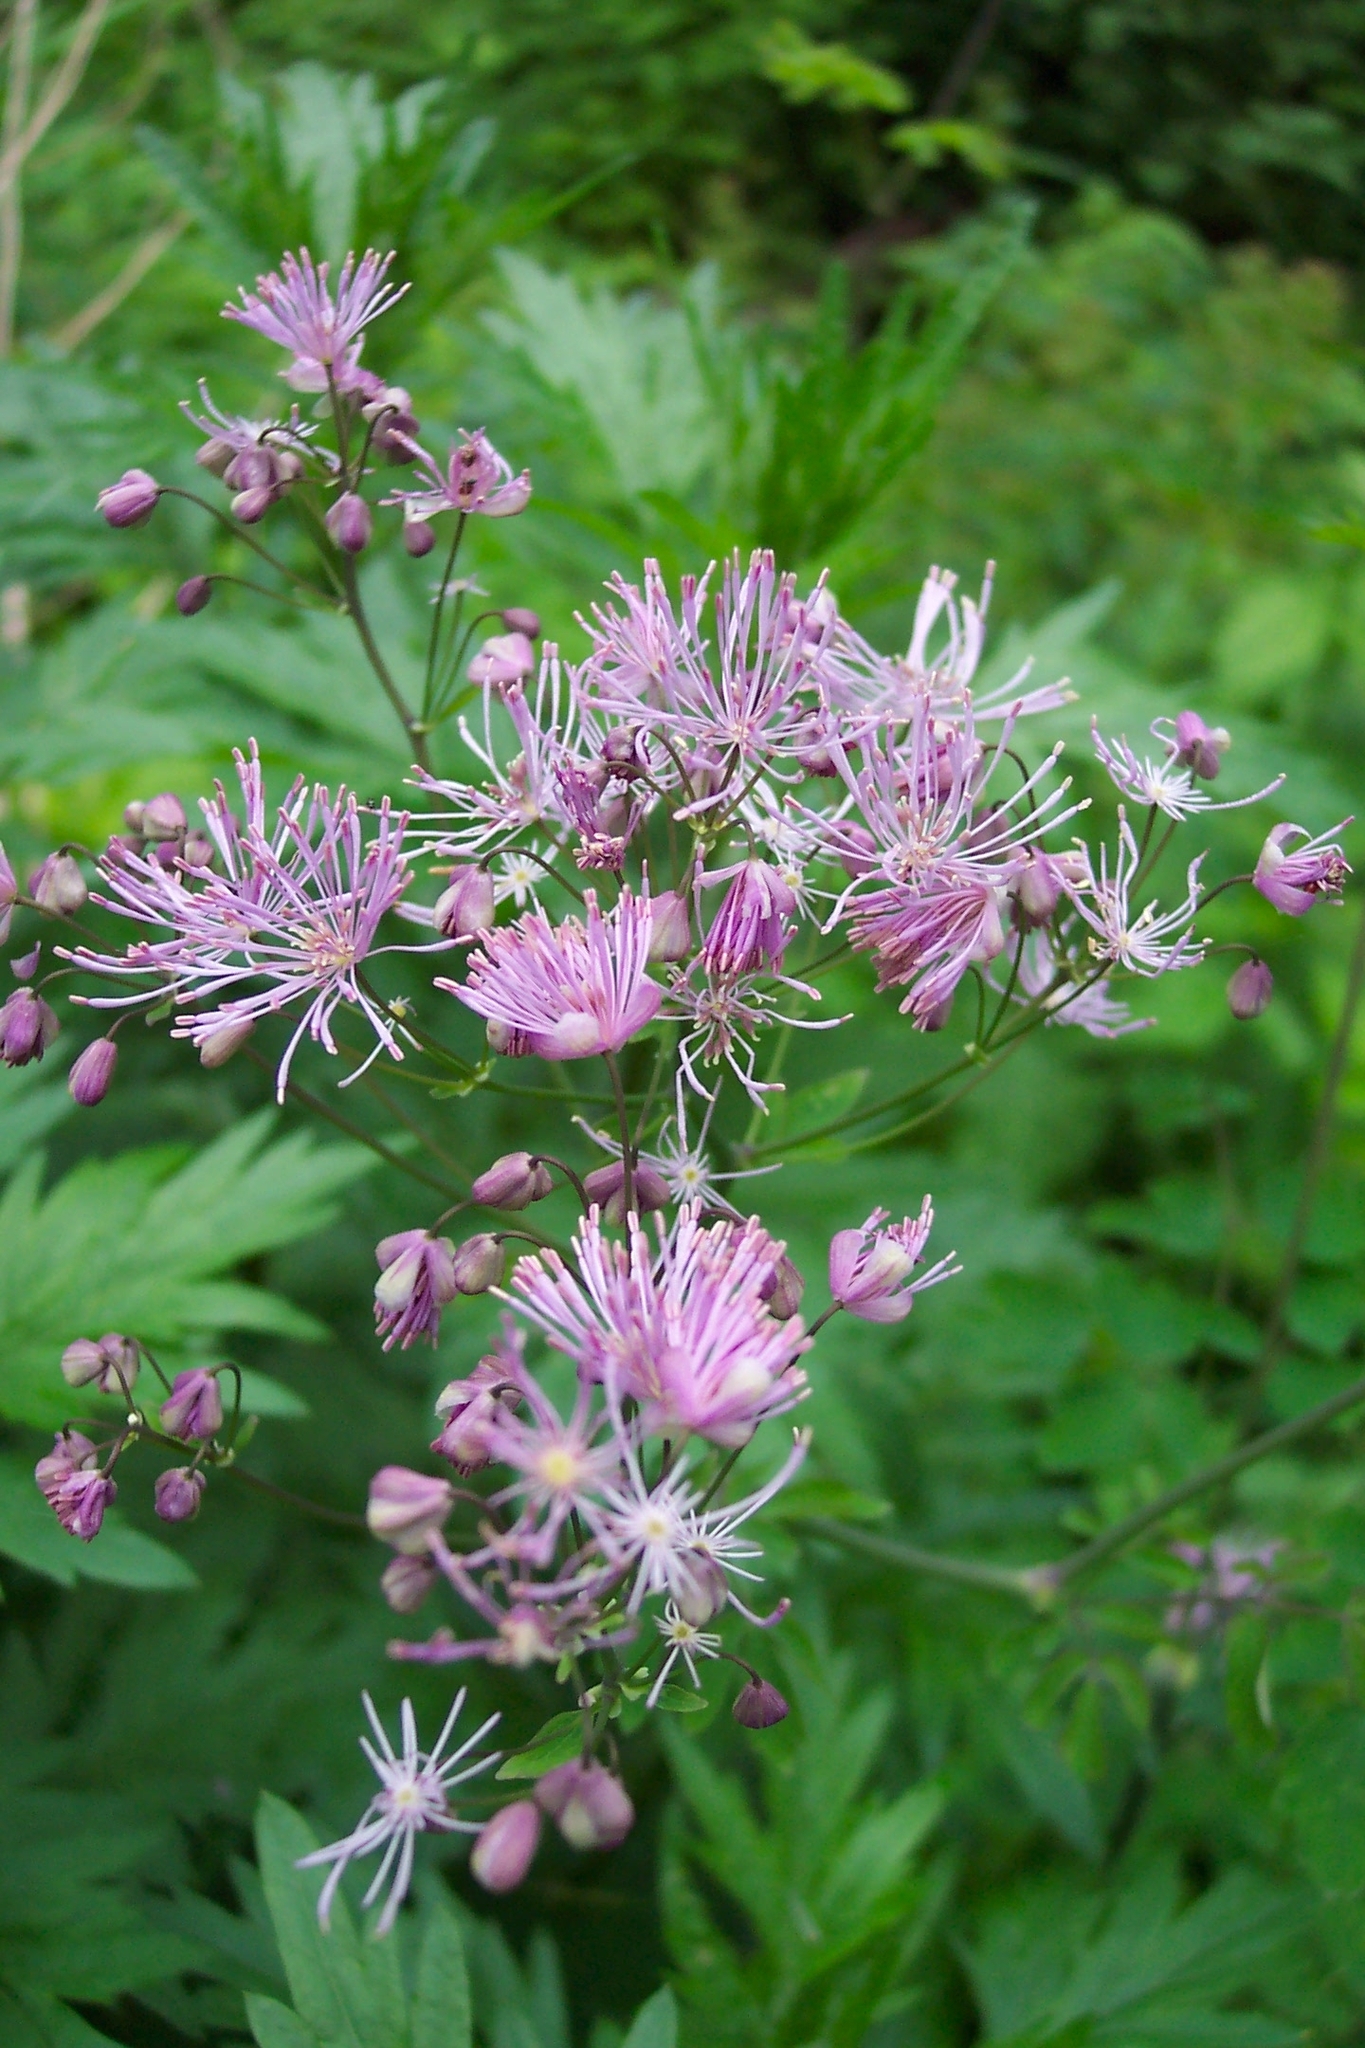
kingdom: Plantae
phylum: Tracheophyta
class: Magnoliopsida
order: Ranunculales
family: Ranunculaceae
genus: Thalictrum
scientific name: Thalictrum aquilegiifolium
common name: French meadow-rue
